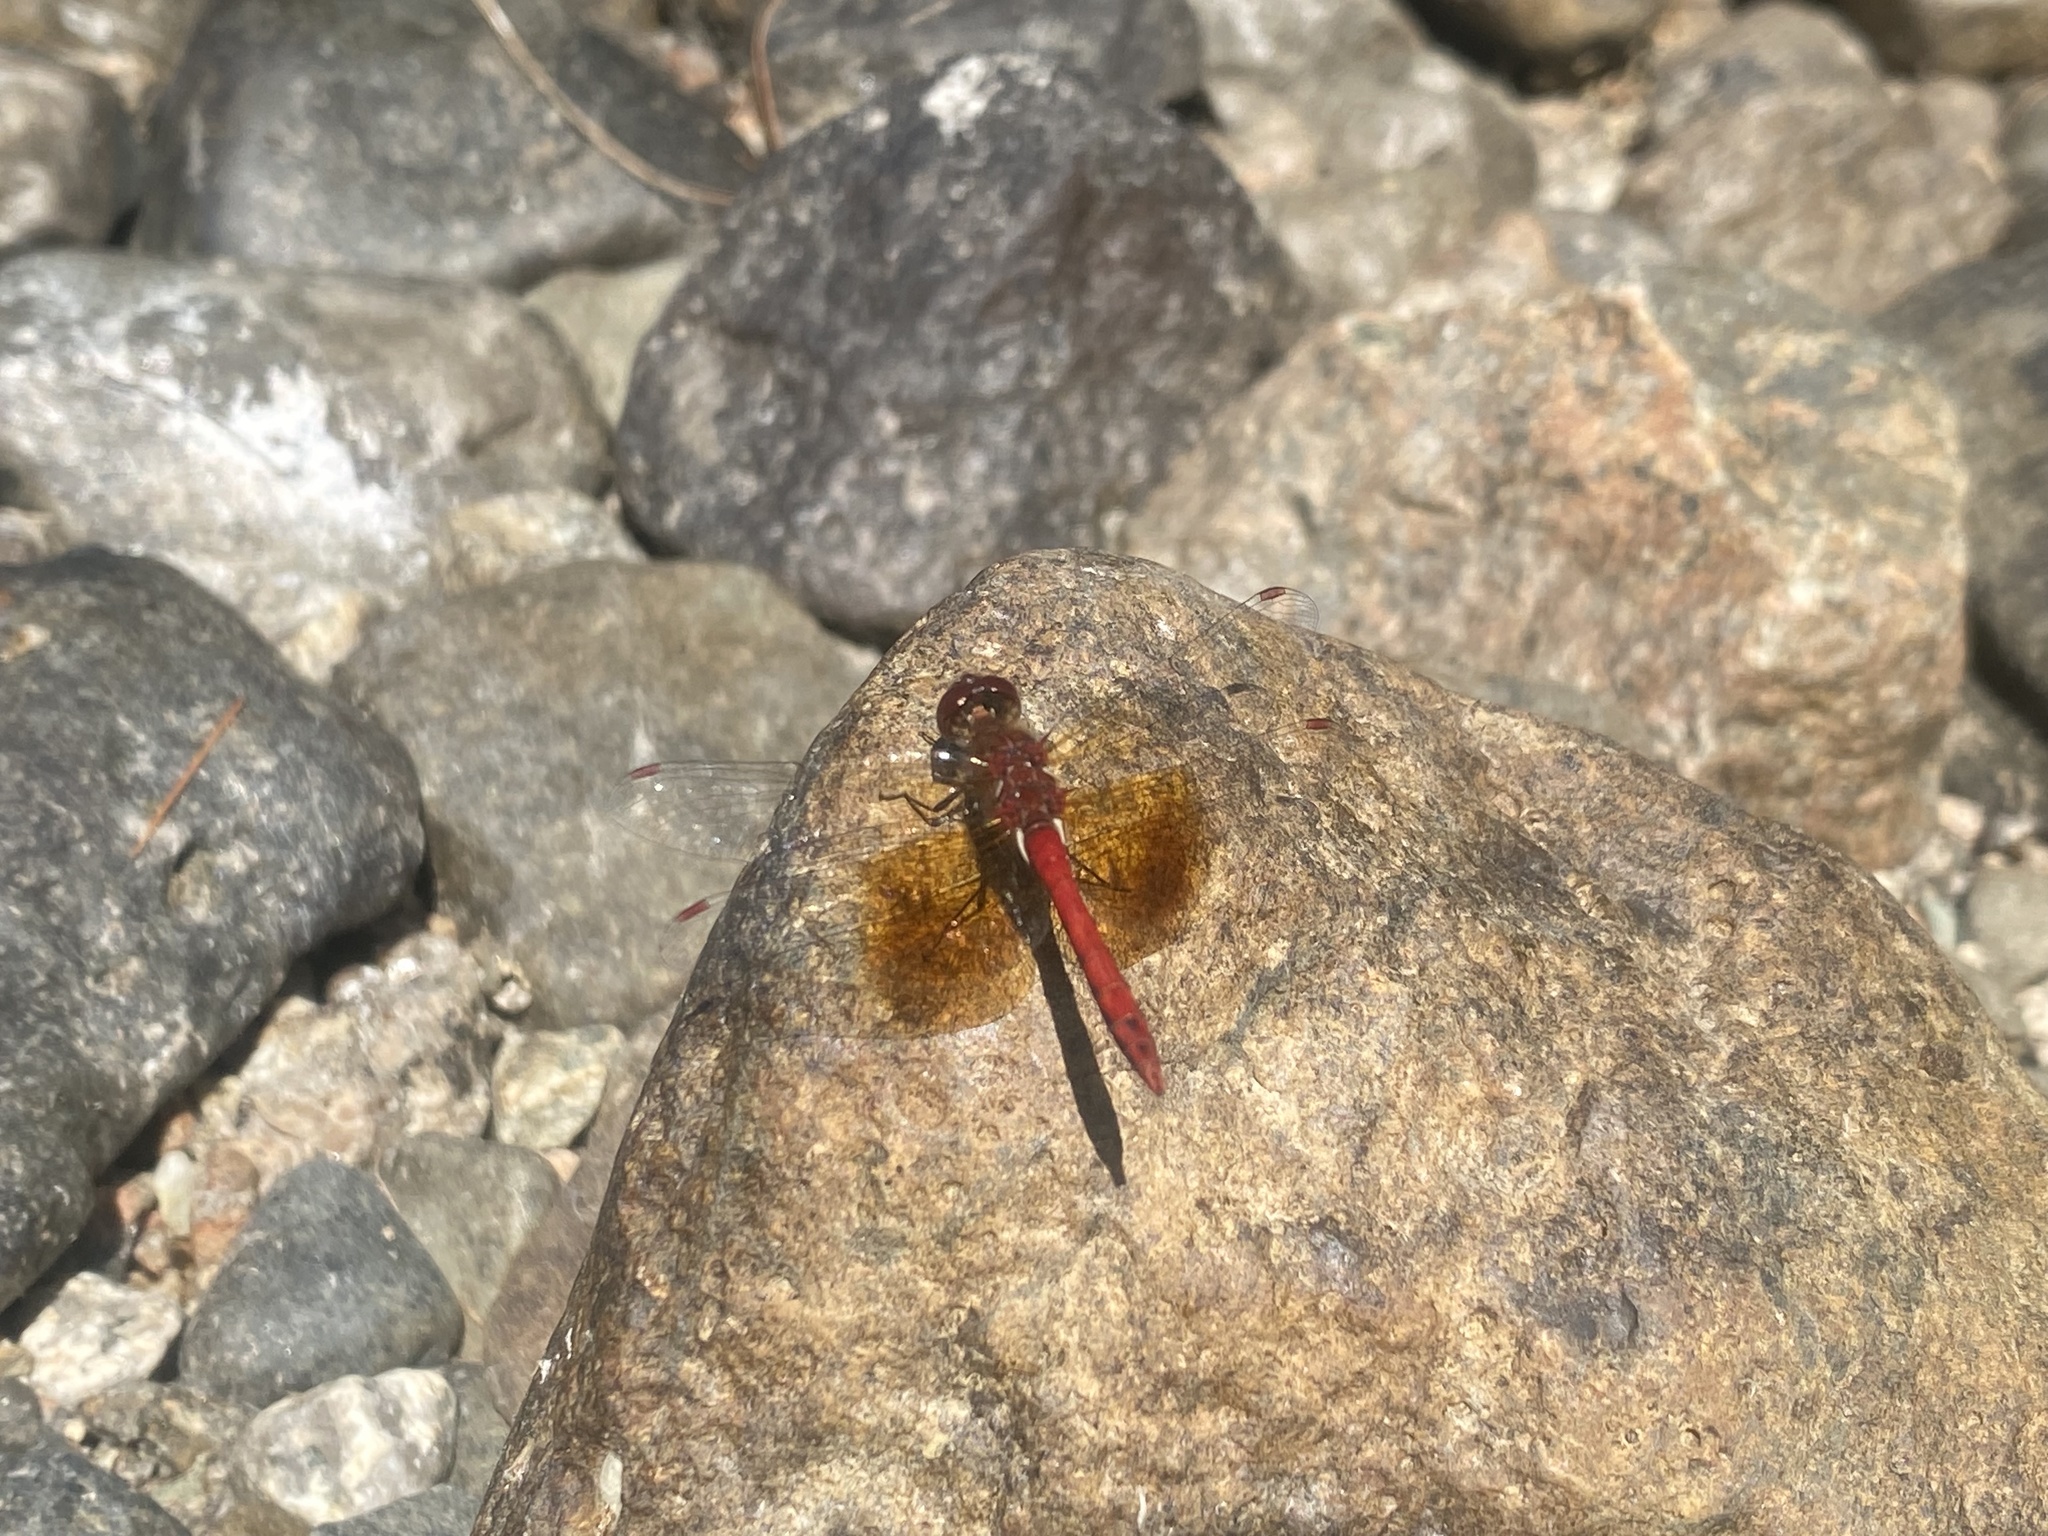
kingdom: Animalia
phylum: Arthropoda
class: Insecta
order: Odonata
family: Libellulidae
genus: Sympetrum
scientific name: Sympetrum semicinctum
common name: Band-winged meadowhawk
